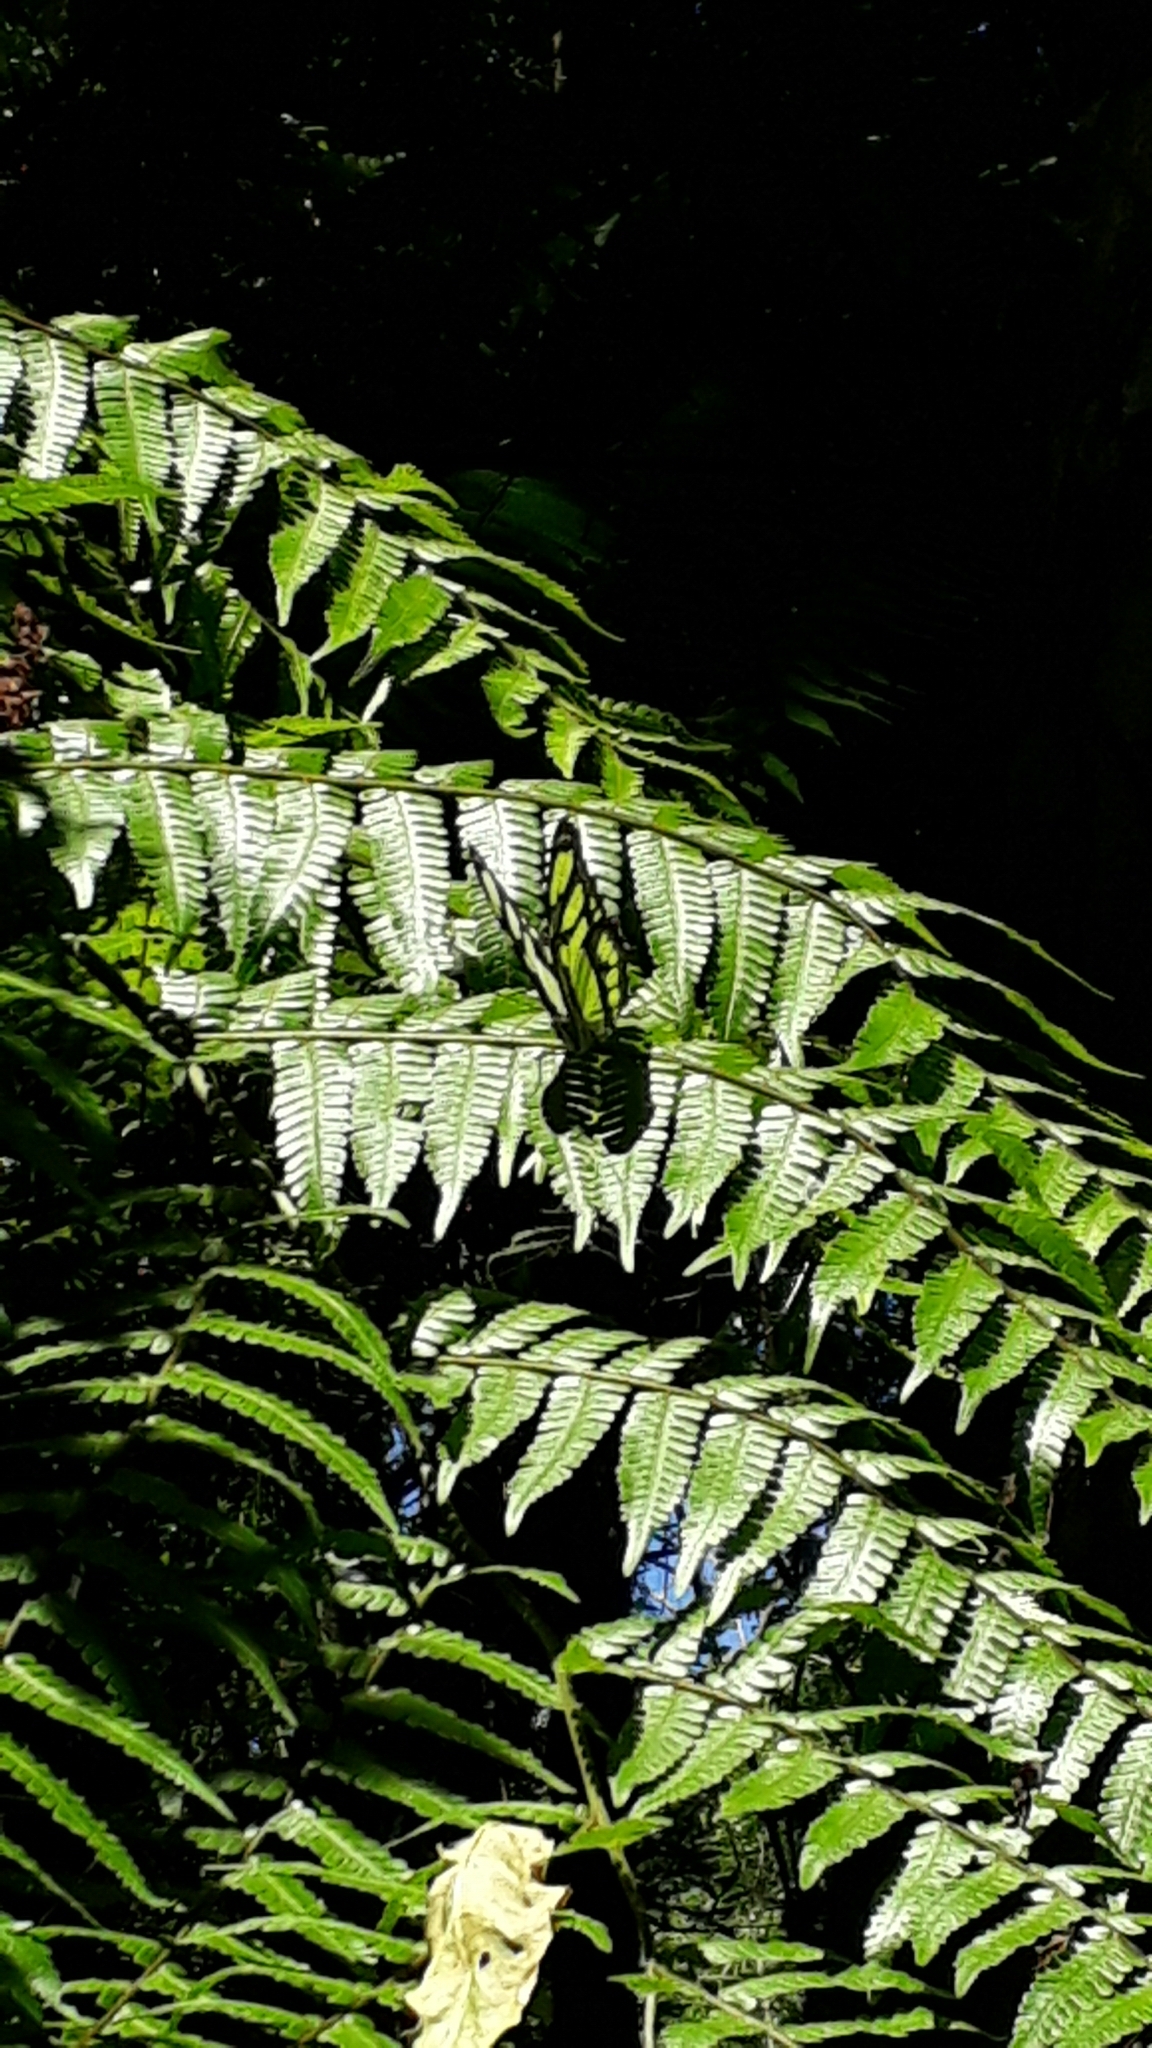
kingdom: Animalia
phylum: Arthropoda
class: Insecta
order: Lepidoptera
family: Nymphalidae
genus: Siproeta
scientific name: Siproeta stelenes
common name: Malachite
